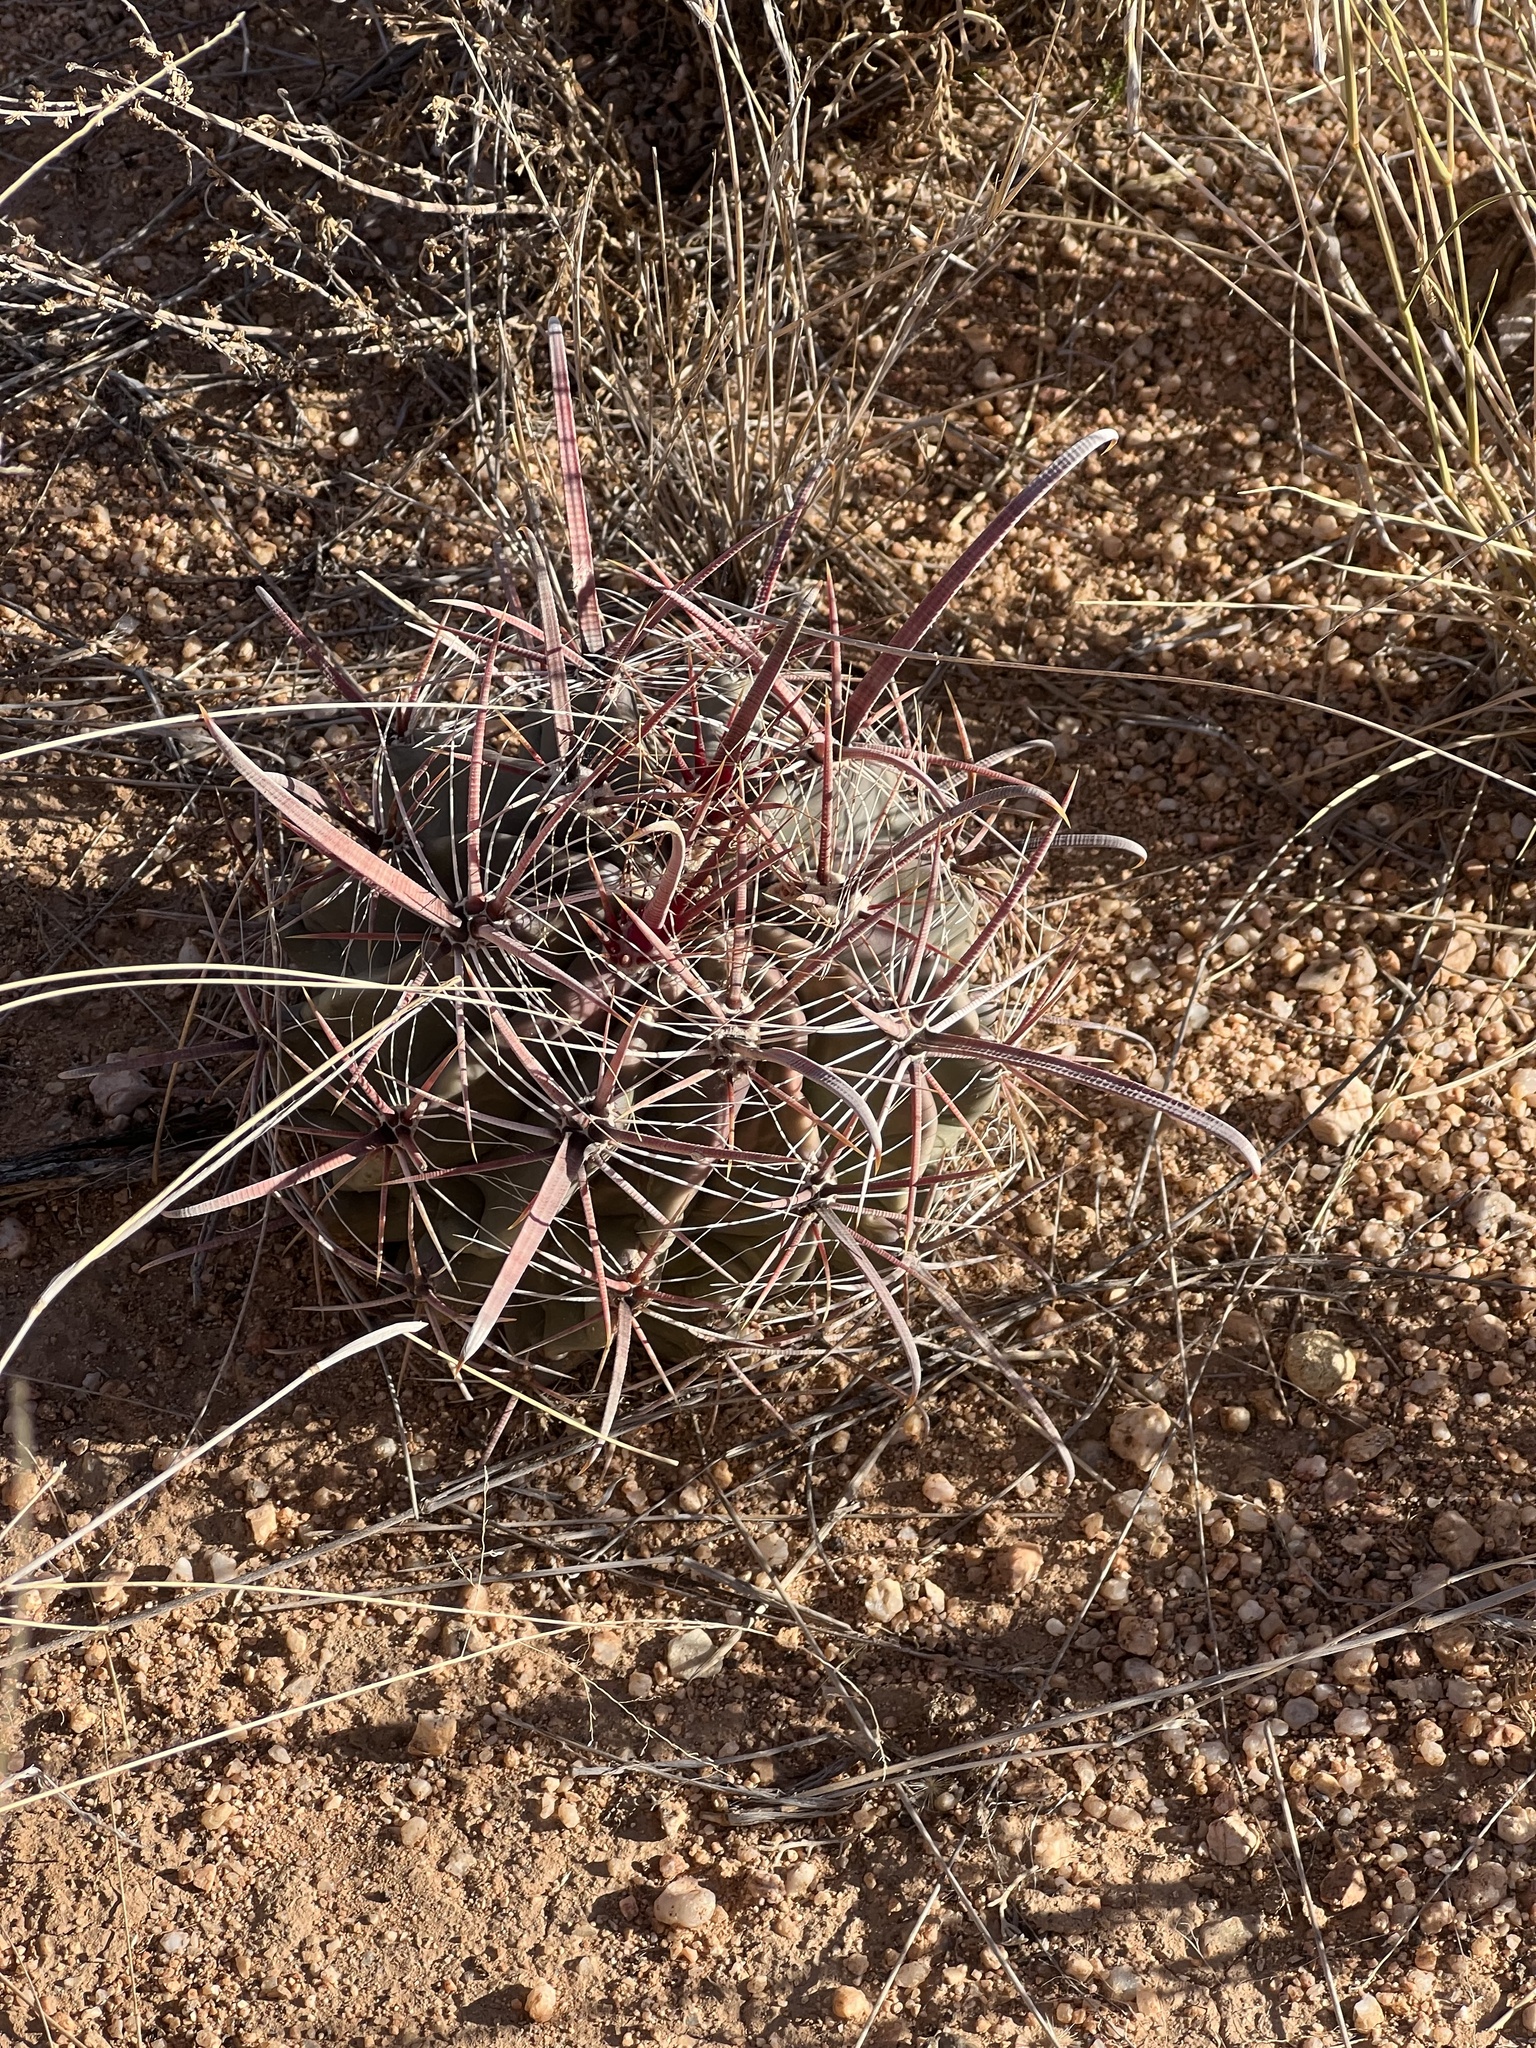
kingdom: Plantae
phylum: Tracheophyta
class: Magnoliopsida
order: Caryophyllales
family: Cactaceae
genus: Ferocactus
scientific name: Ferocactus wislizeni
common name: Candy barrel cactus
